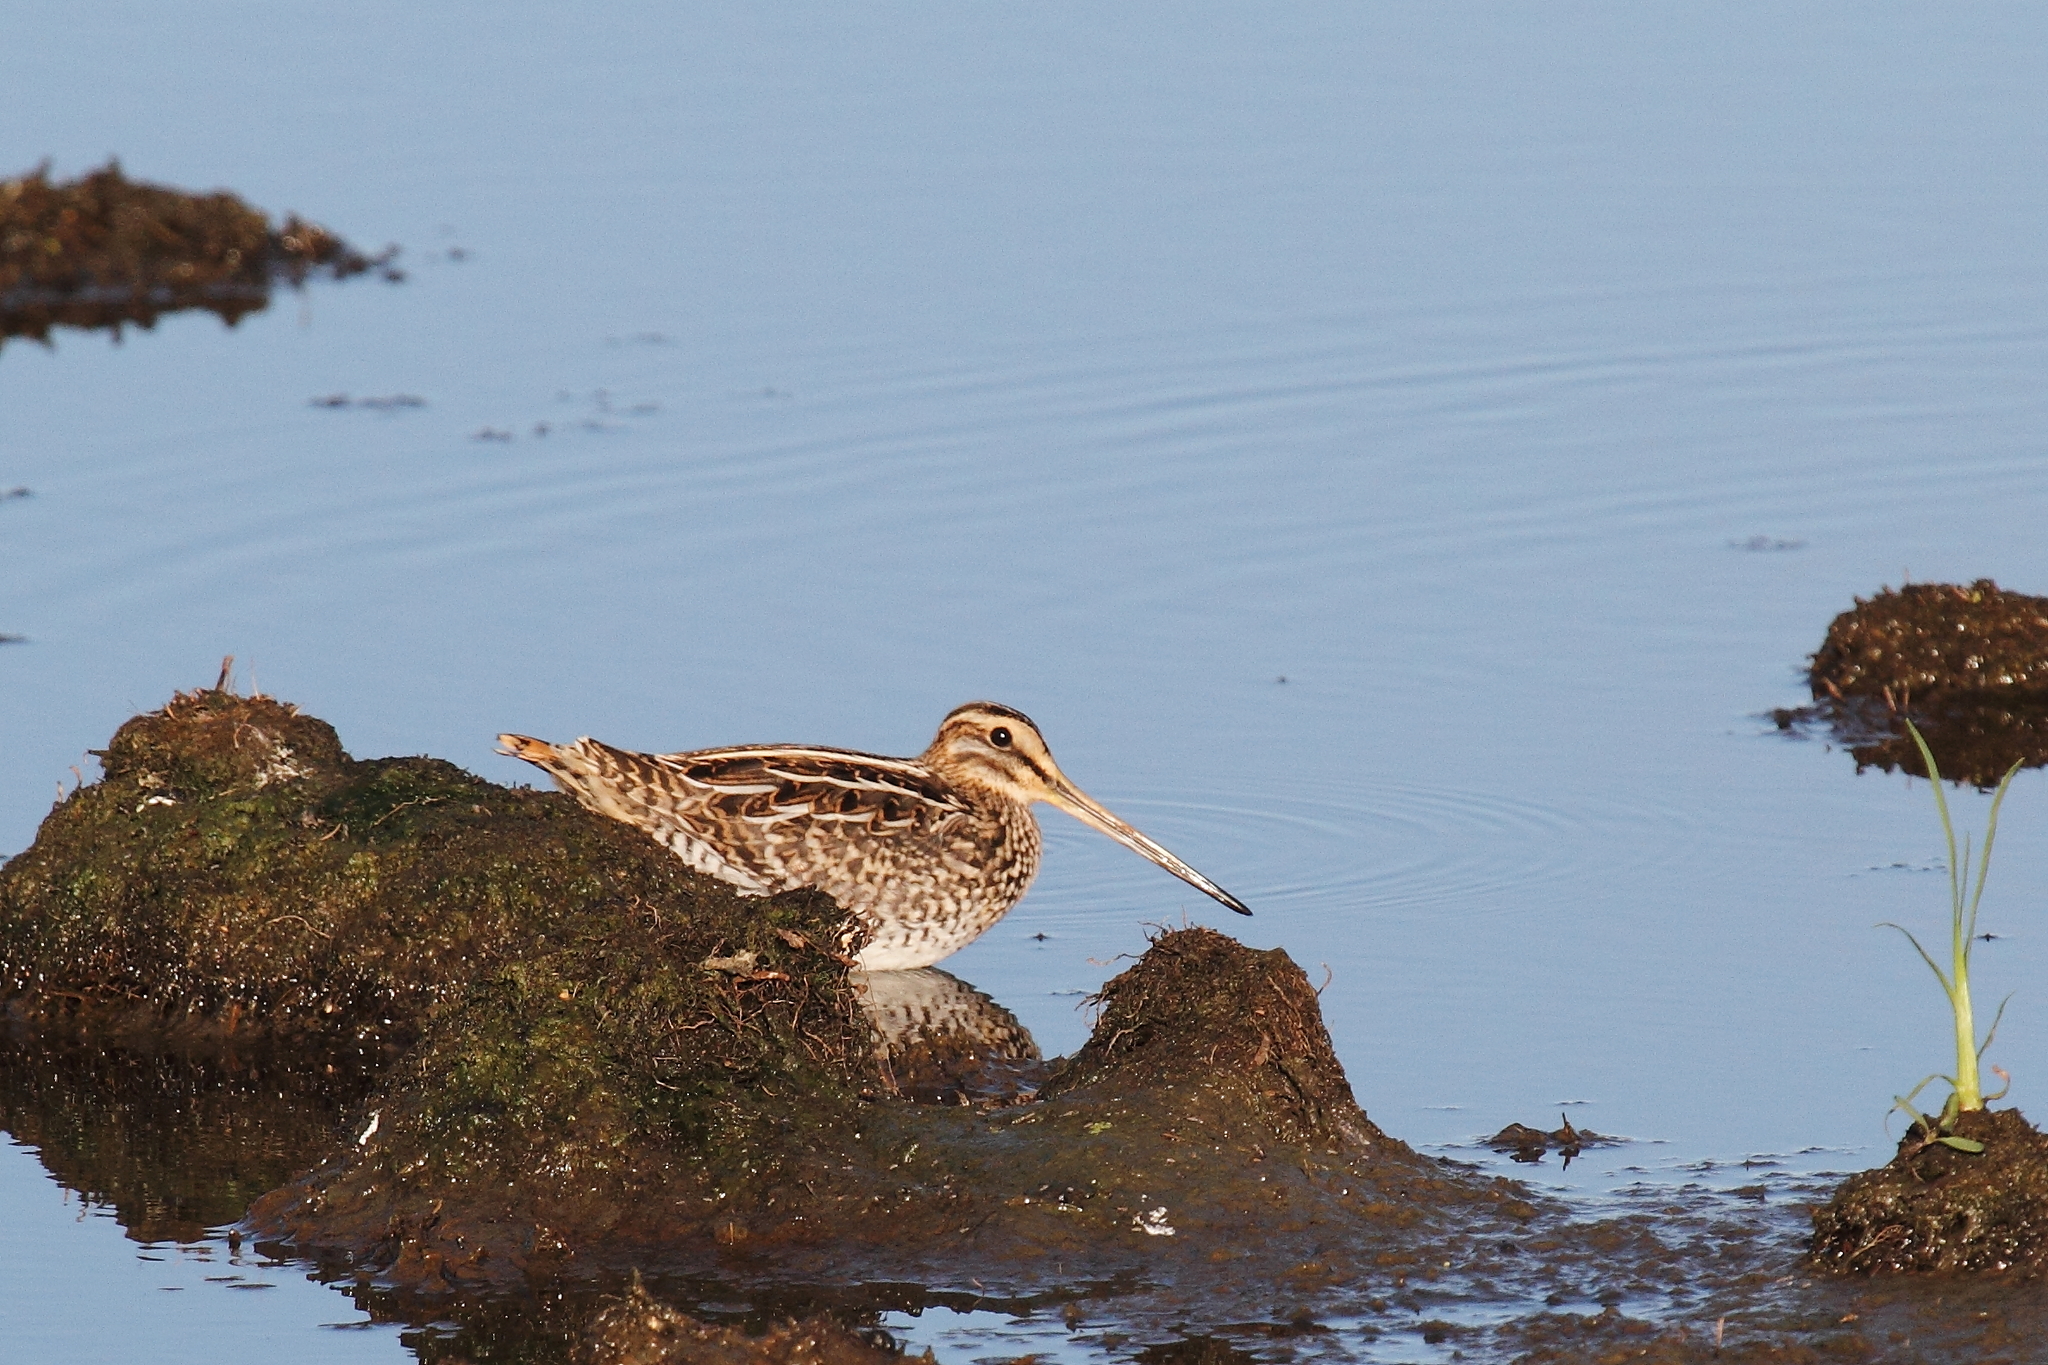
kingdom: Animalia
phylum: Chordata
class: Aves
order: Charadriiformes
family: Scolopacidae
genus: Gallinago
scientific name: Gallinago gallinago
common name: Common snipe
